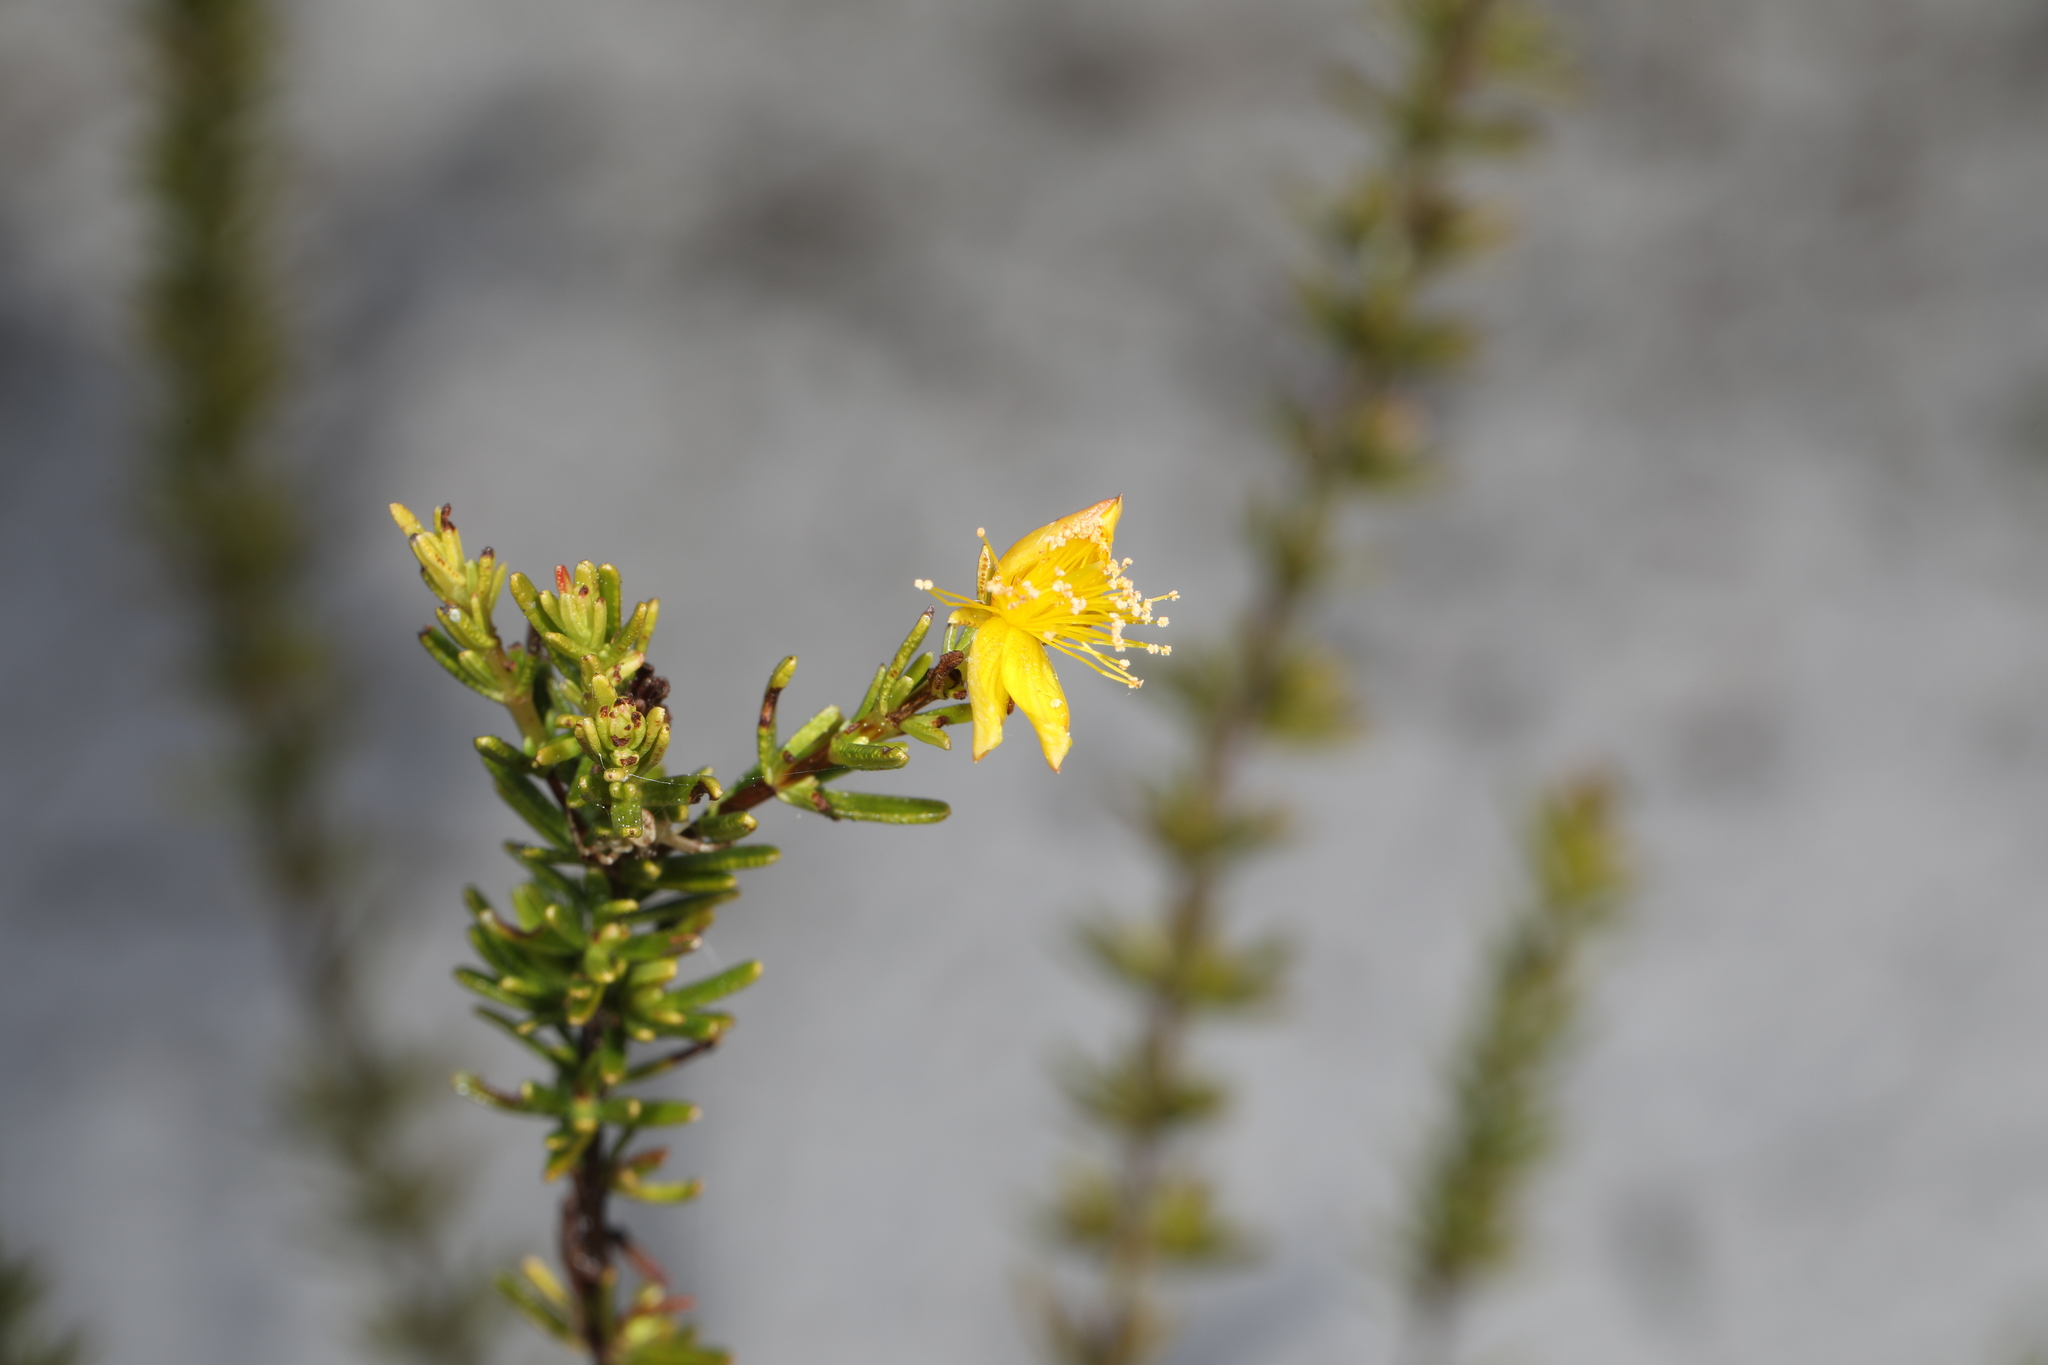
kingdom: Plantae
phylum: Tracheophyta
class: Magnoliopsida
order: Malpighiales
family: Hypericaceae
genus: Hypericum
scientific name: Hypericum tenuifolium
